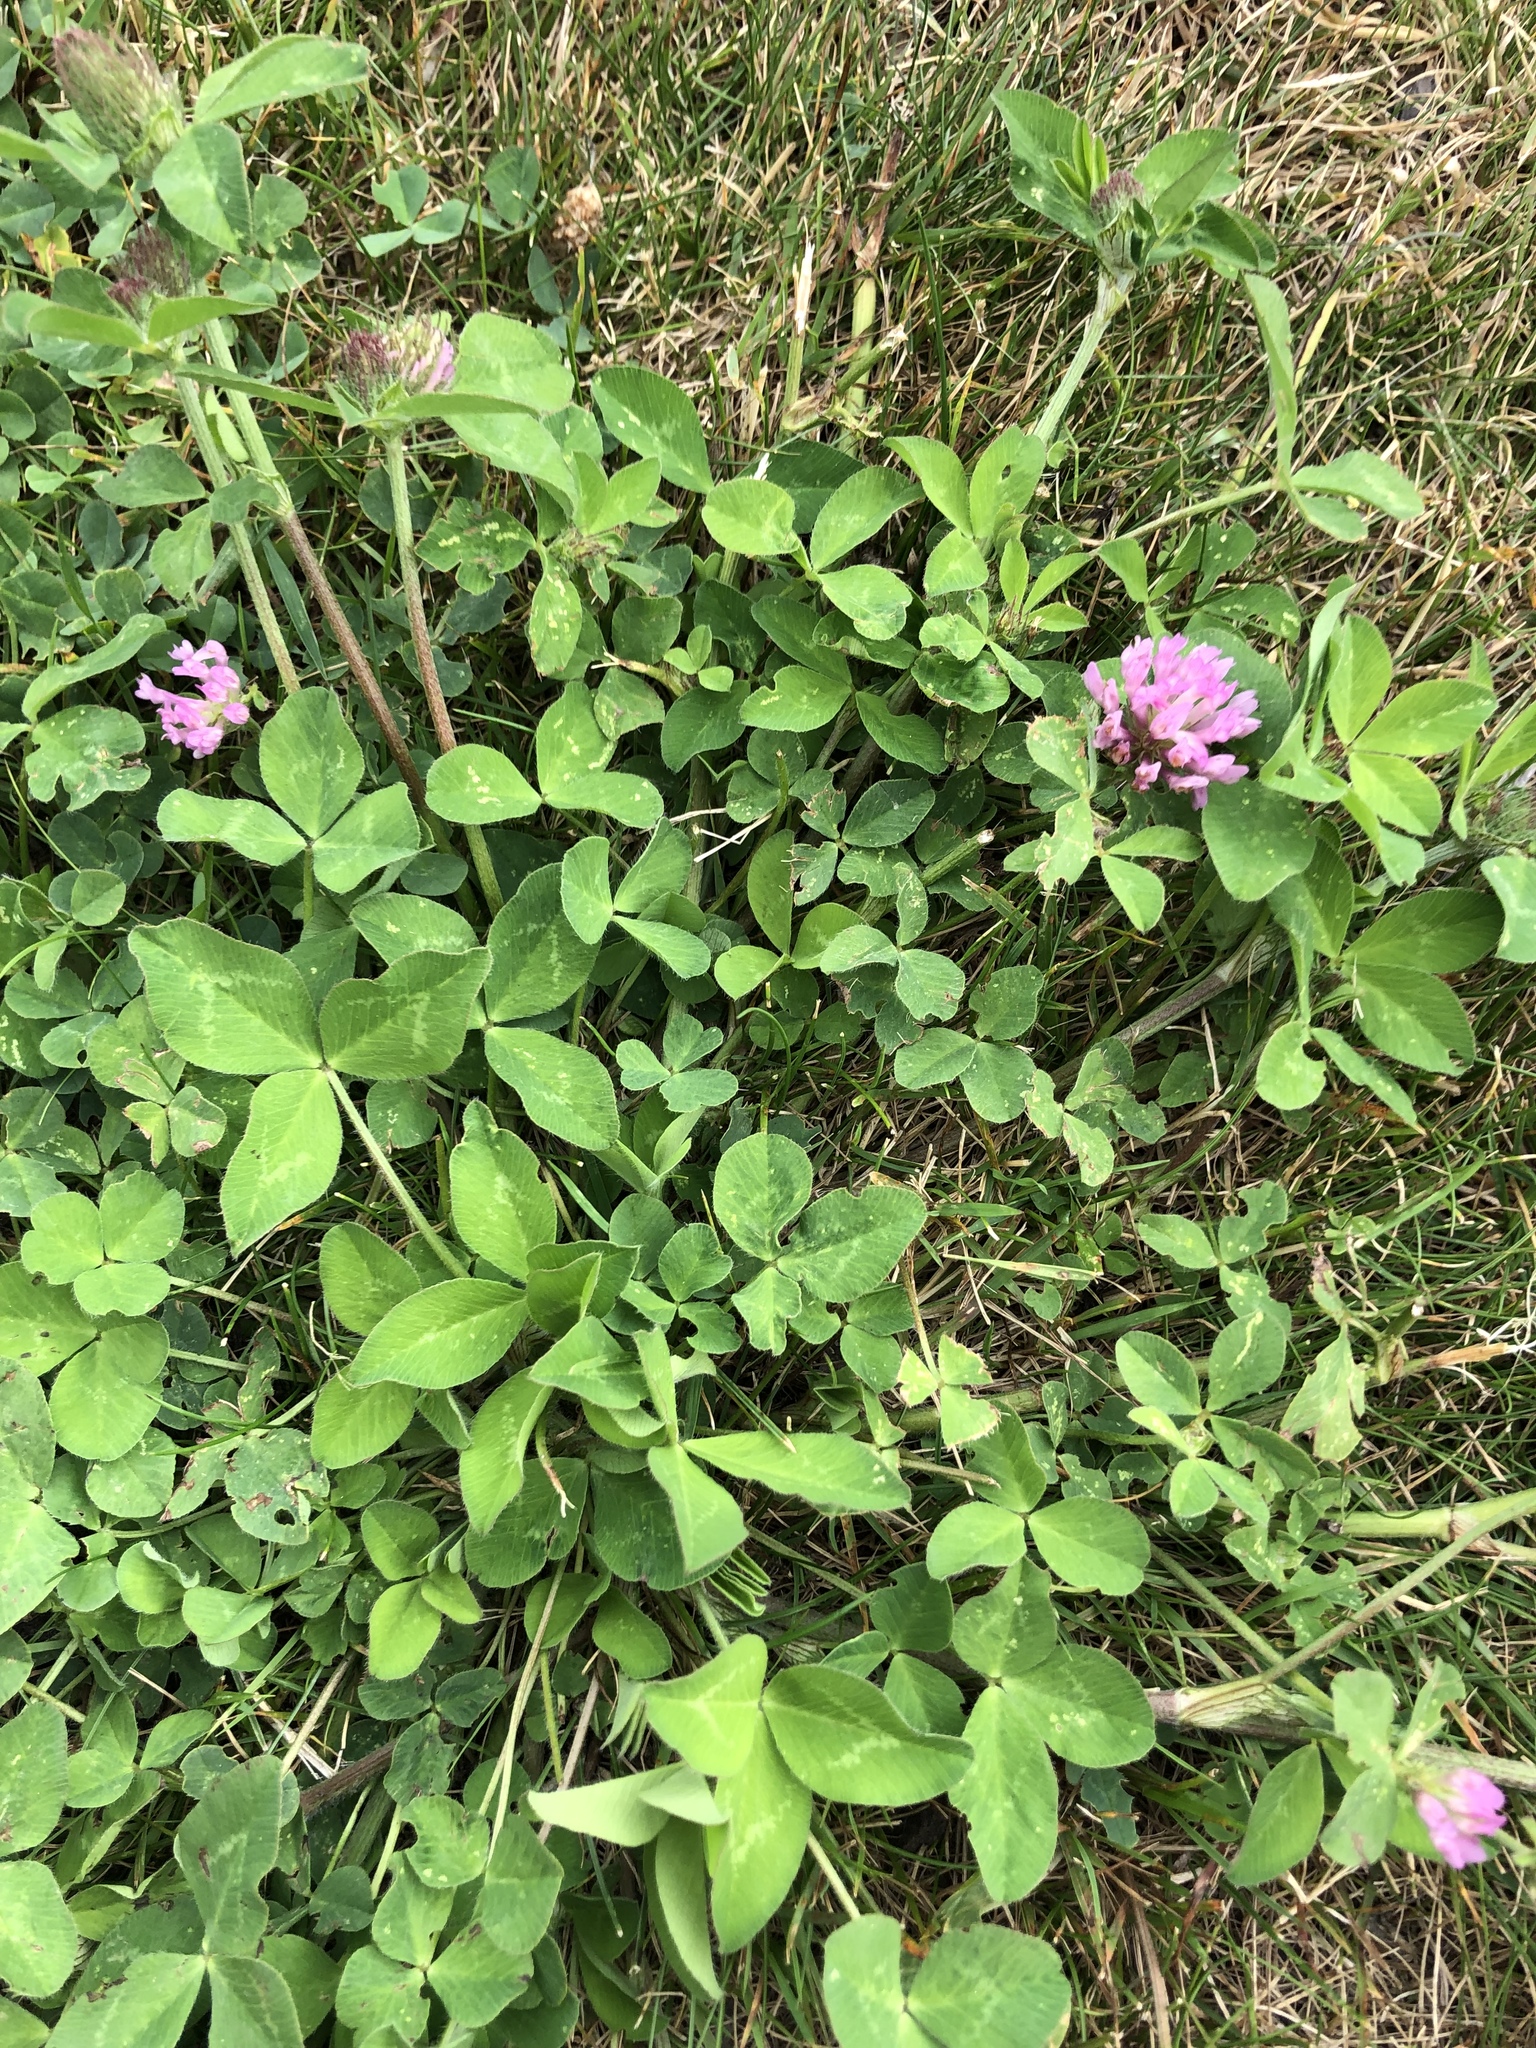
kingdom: Plantae
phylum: Tracheophyta
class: Magnoliopsida
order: Fabales
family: Fabaceae
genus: Trifolium
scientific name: Trifolium pratense
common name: Red clover
